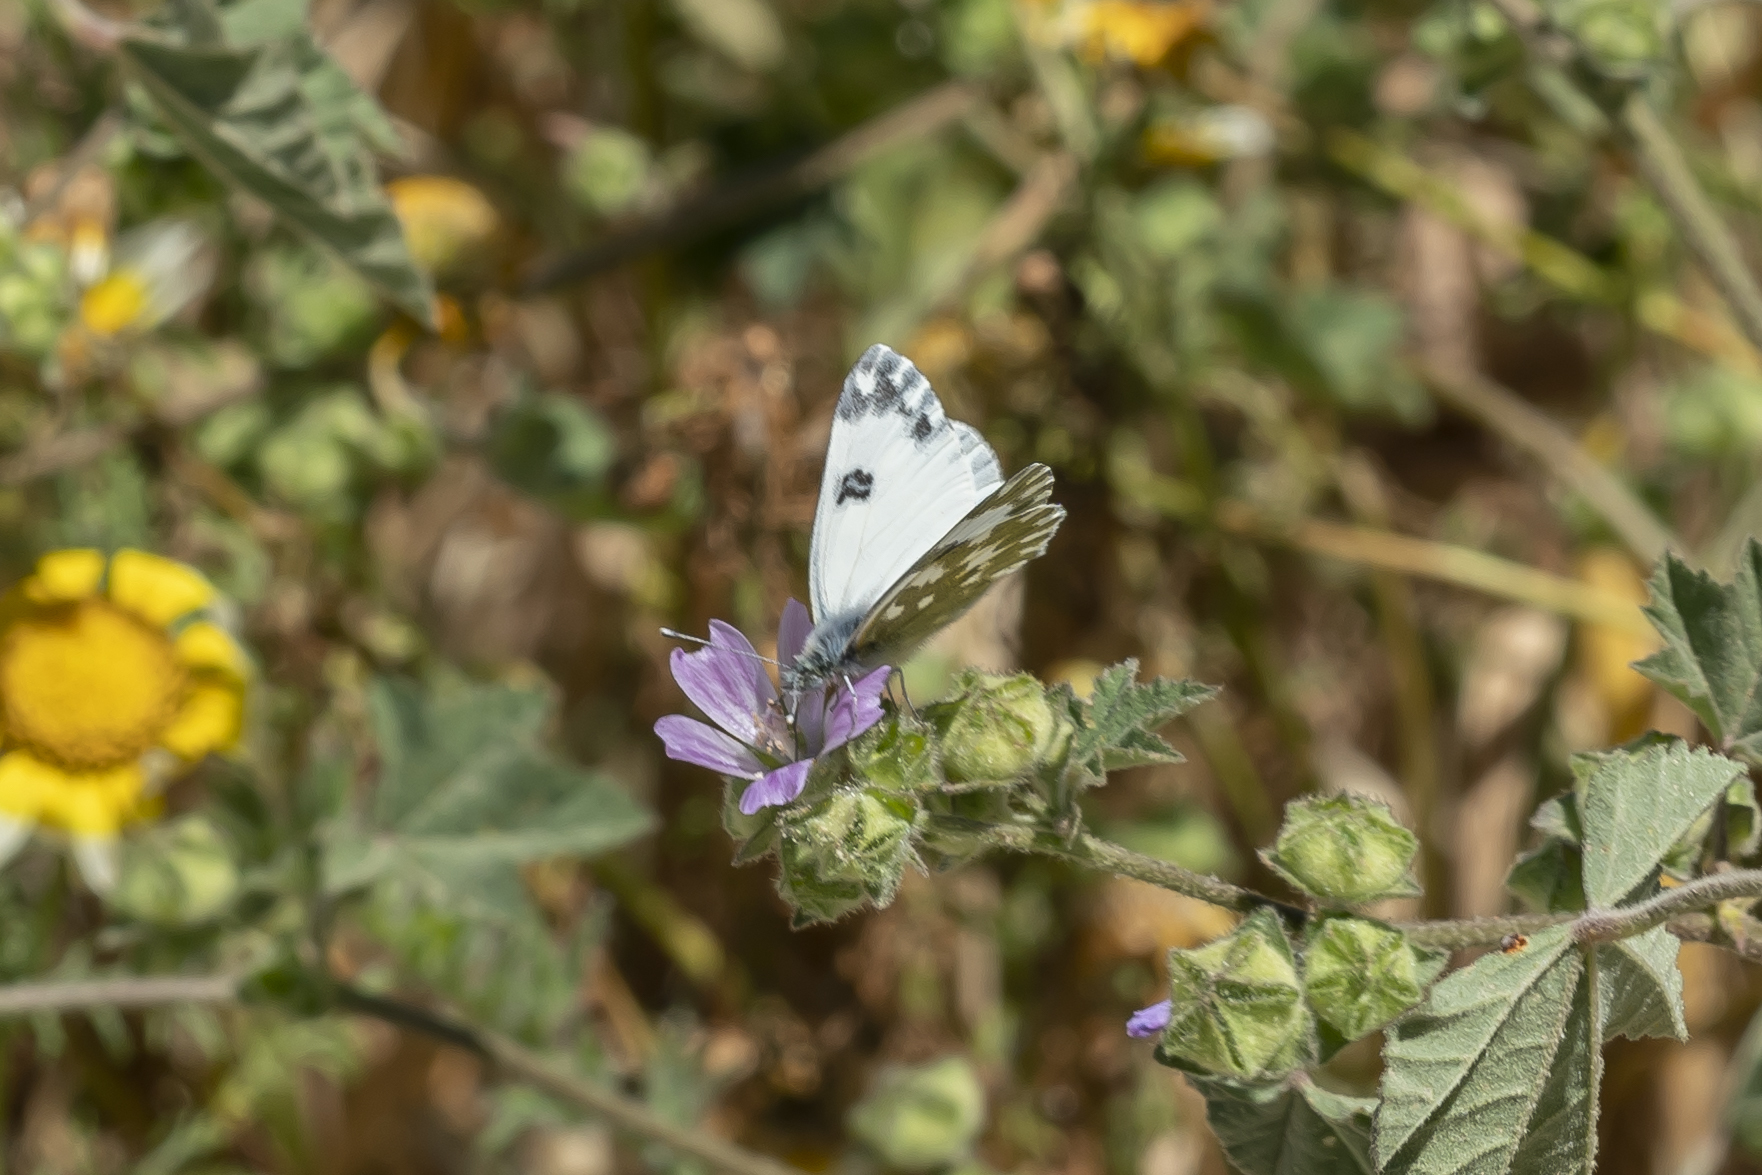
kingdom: Animalia
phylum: Arthropoda
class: Insecta
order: Lepidoptera
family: Pieridae
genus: Pontia
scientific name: Pontia edusa
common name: Eastern bath white
